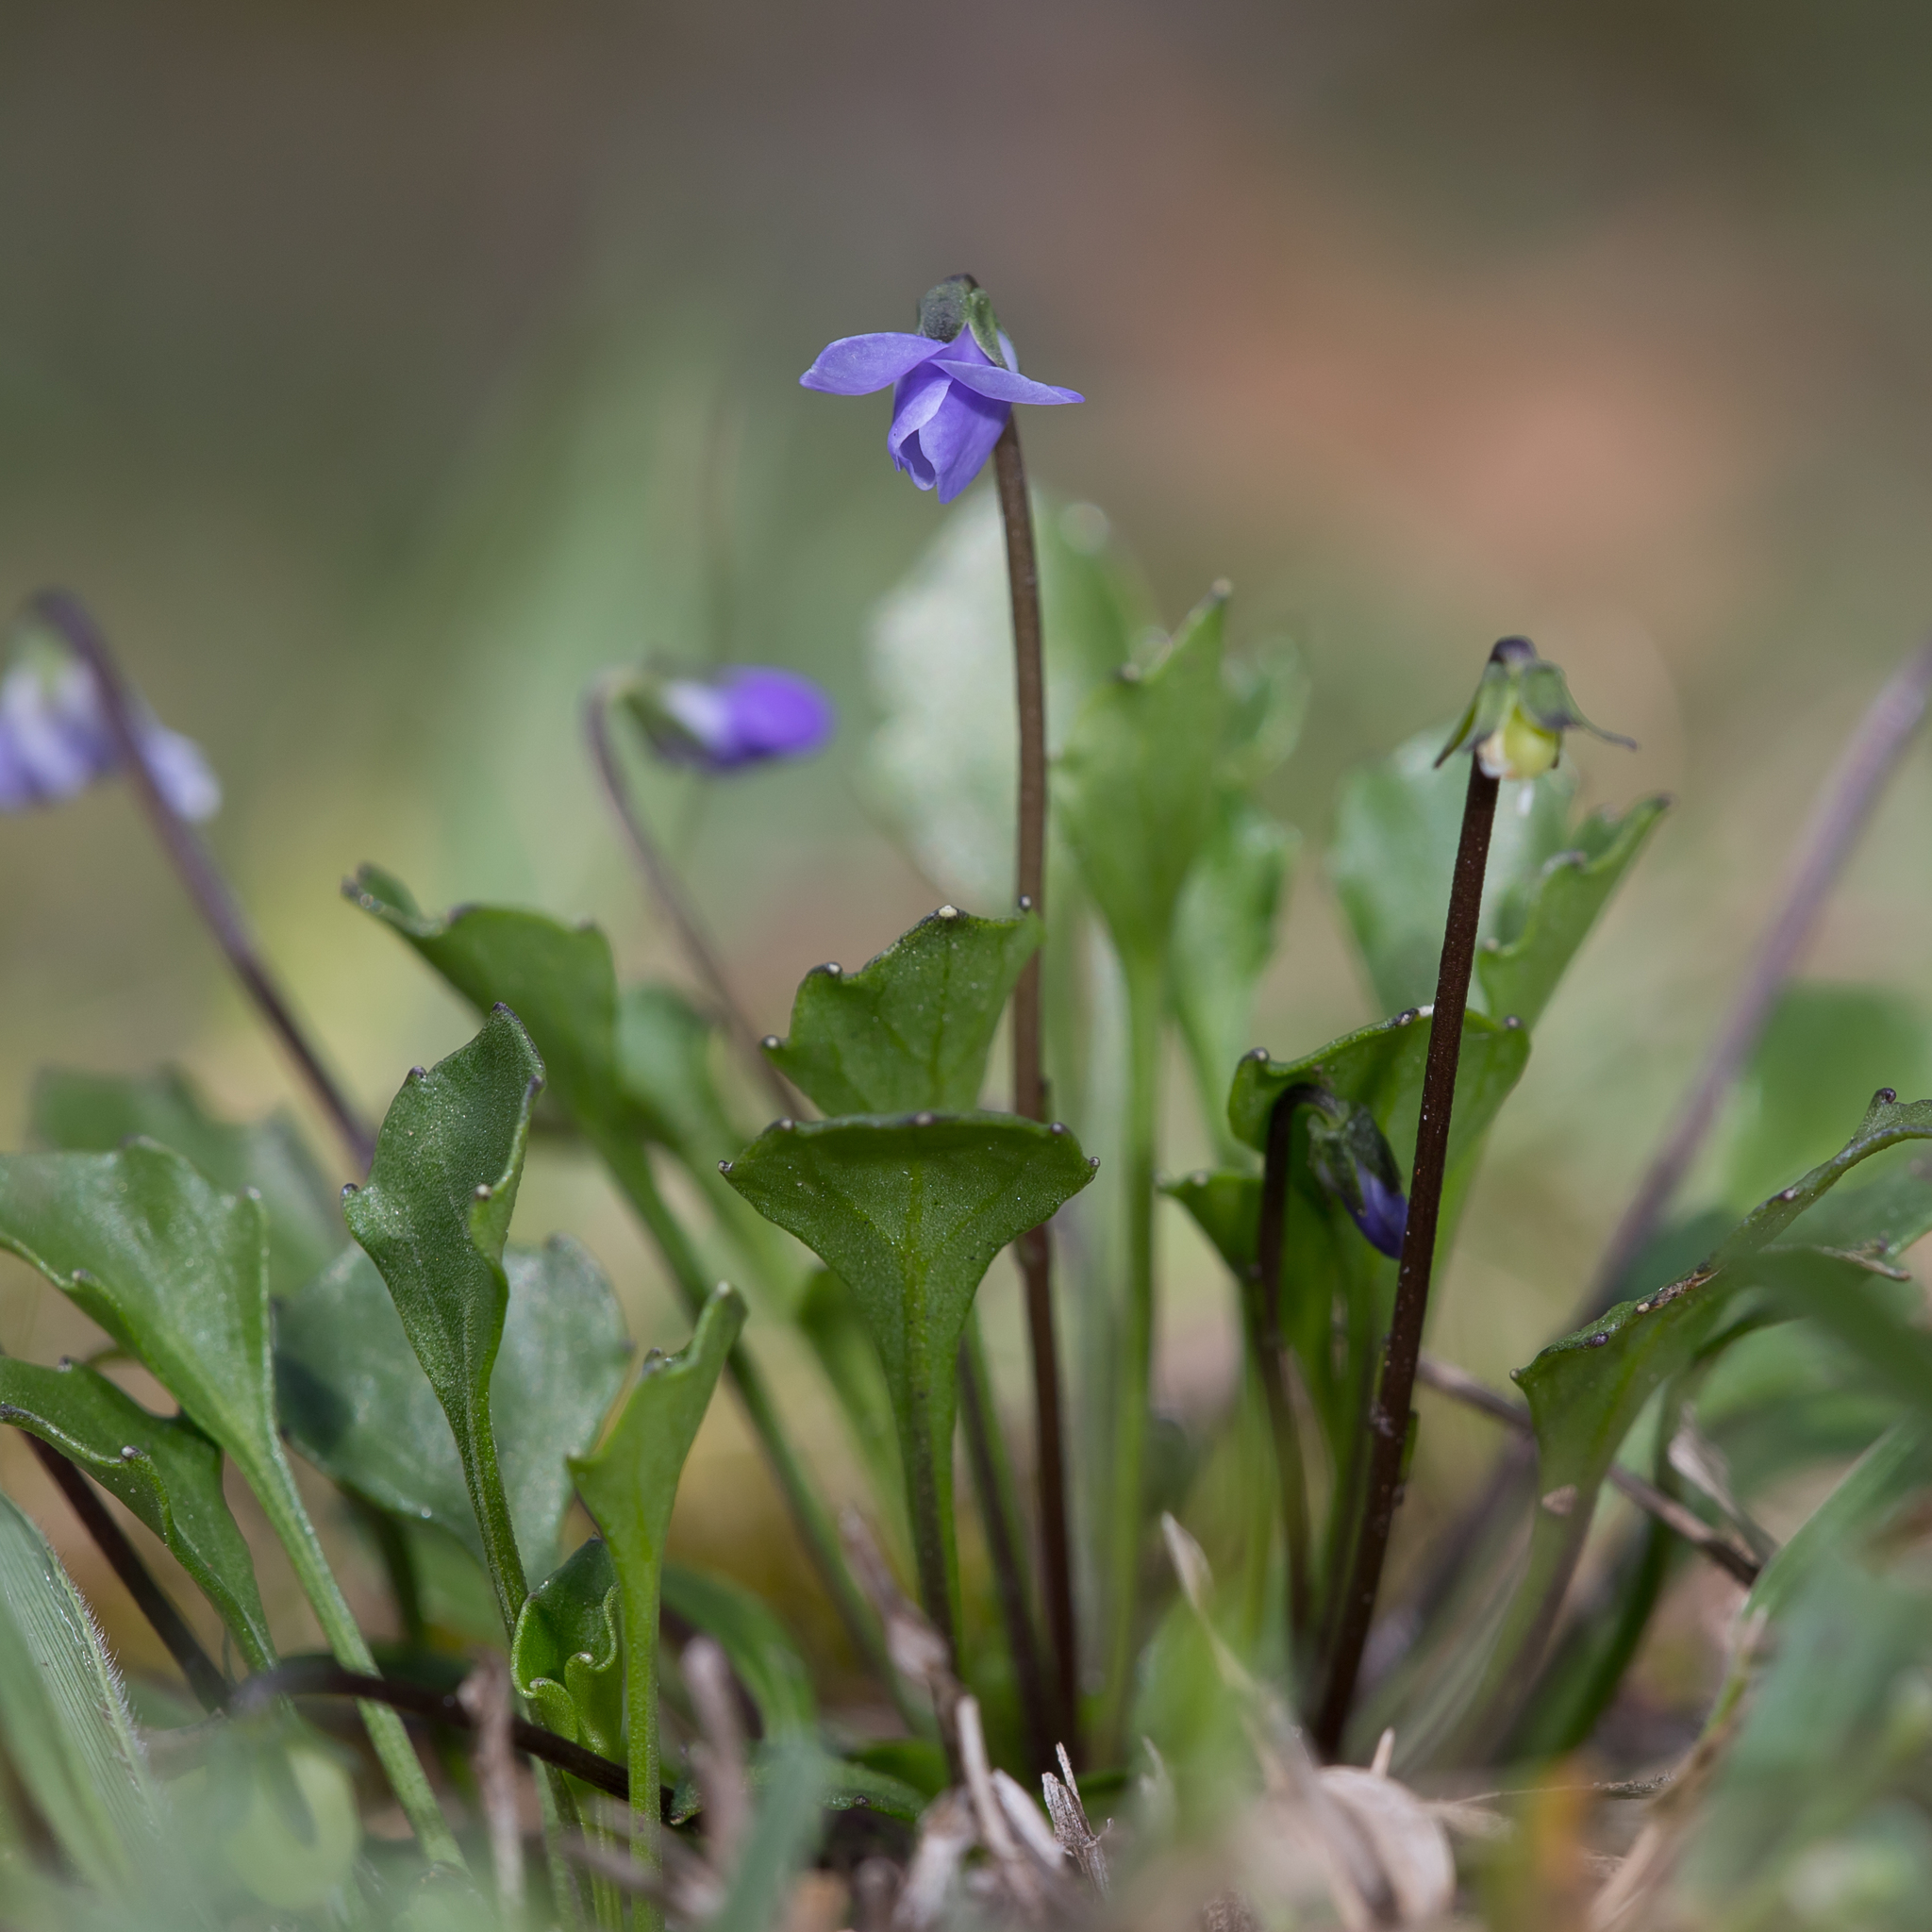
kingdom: Plantae
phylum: Tracheophyta
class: Magnoliopsida
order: Malpighiales
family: Violaceae
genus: Viola
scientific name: Viola sieberiana
